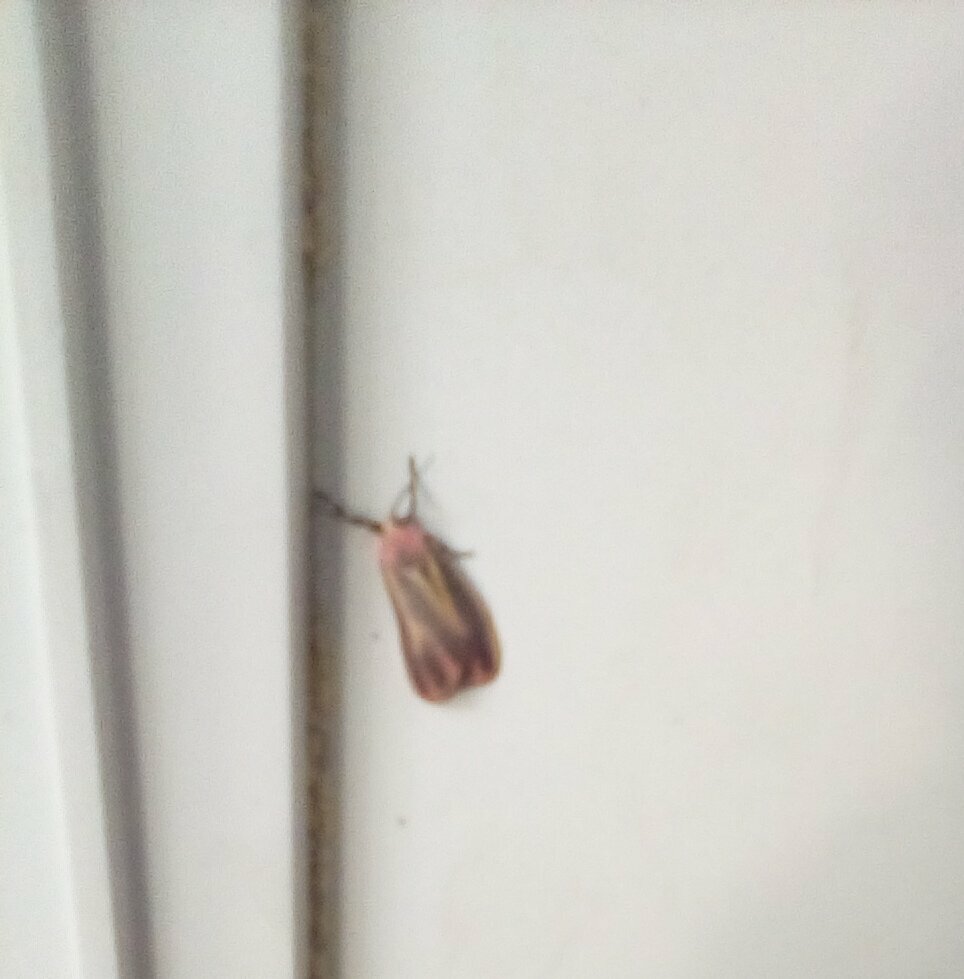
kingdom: Animalia
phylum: Arthropoda
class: Insecta
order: Lepidoptera
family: Erebidae
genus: Hypoprepia
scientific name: Hypoprepia fucosa
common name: Painted lichen moth
